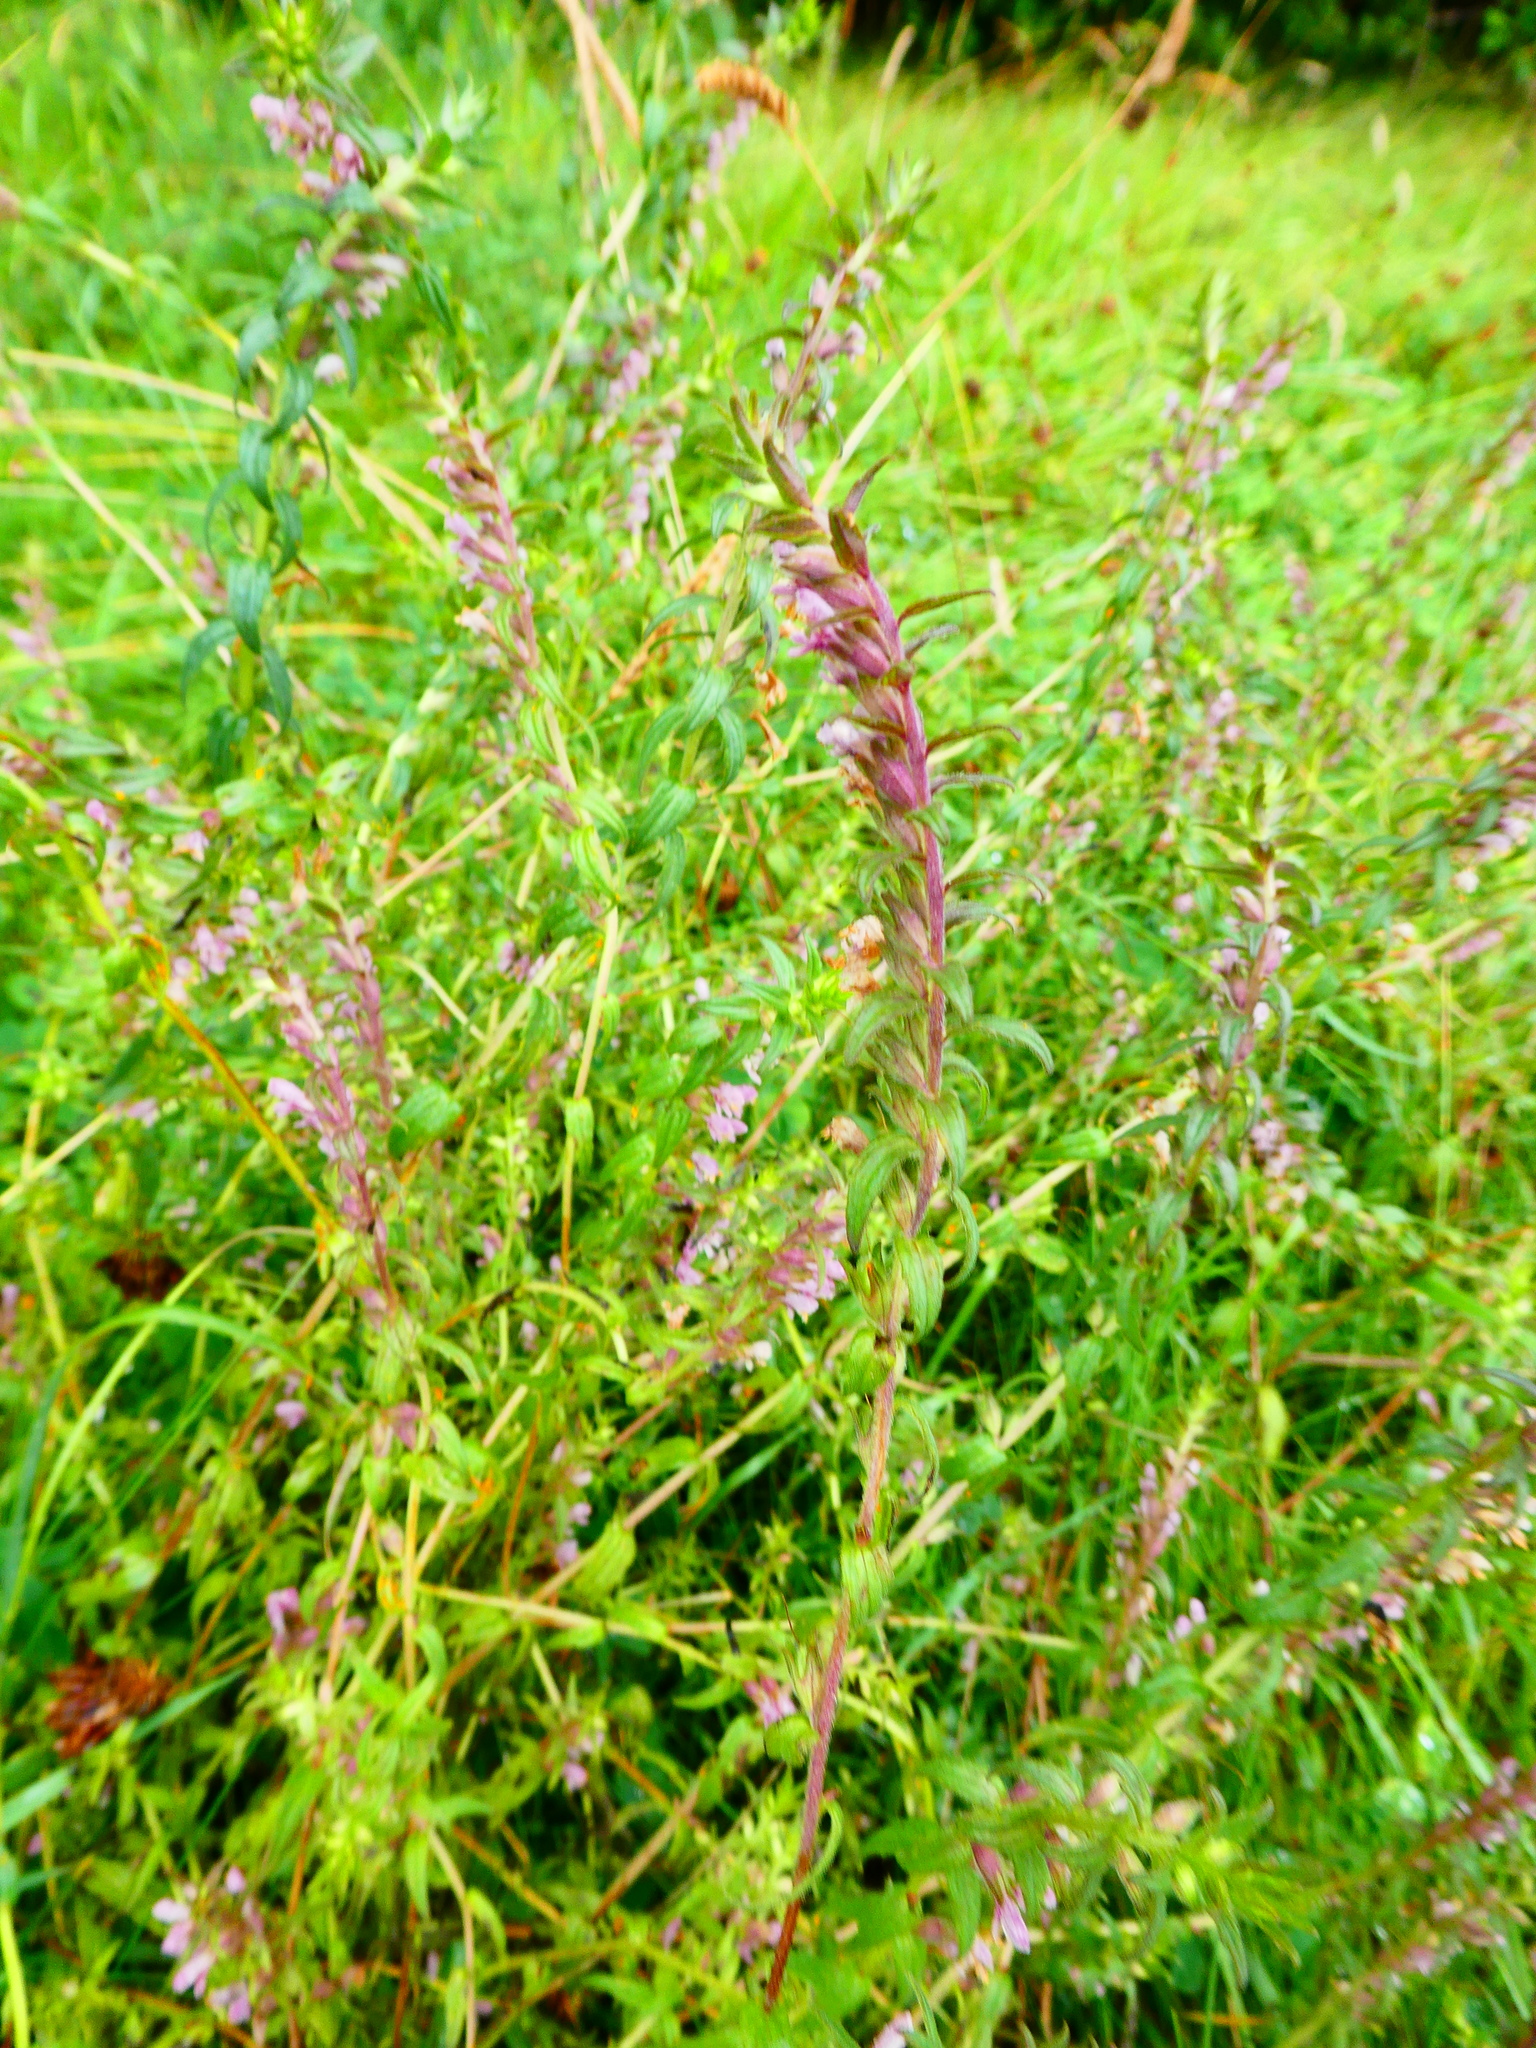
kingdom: Plantae
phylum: Tracheophyta
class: Magnoliopsida
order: Lamiales
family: Orobanchaceae
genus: Odontites
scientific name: Odontites vulgaris
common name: Broomrape
